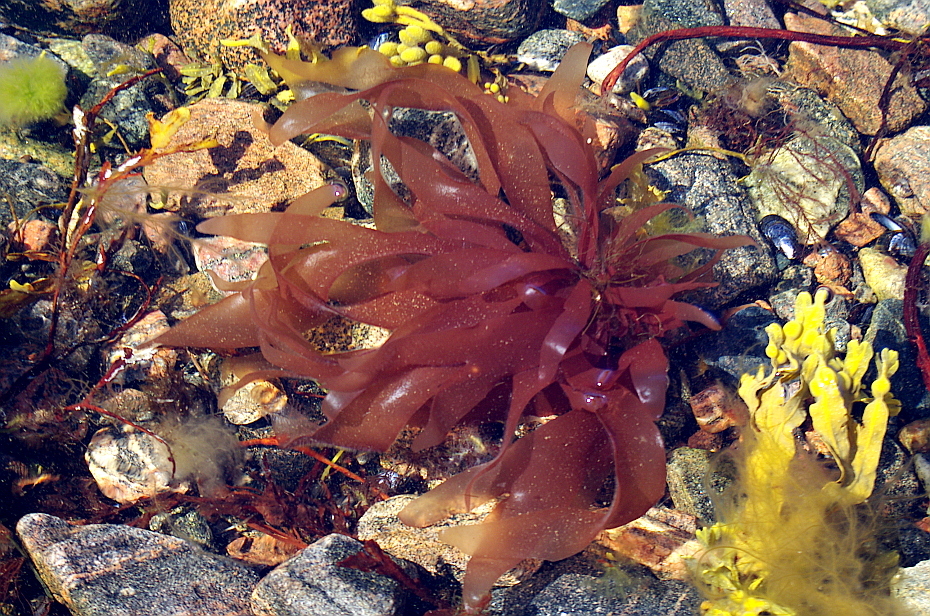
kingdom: Plantae
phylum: Rhodophyta
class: Florideophyceae
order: Palmariales
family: Palmariaceae
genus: Palmaria
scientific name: Palmaria palmata
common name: Dulse
